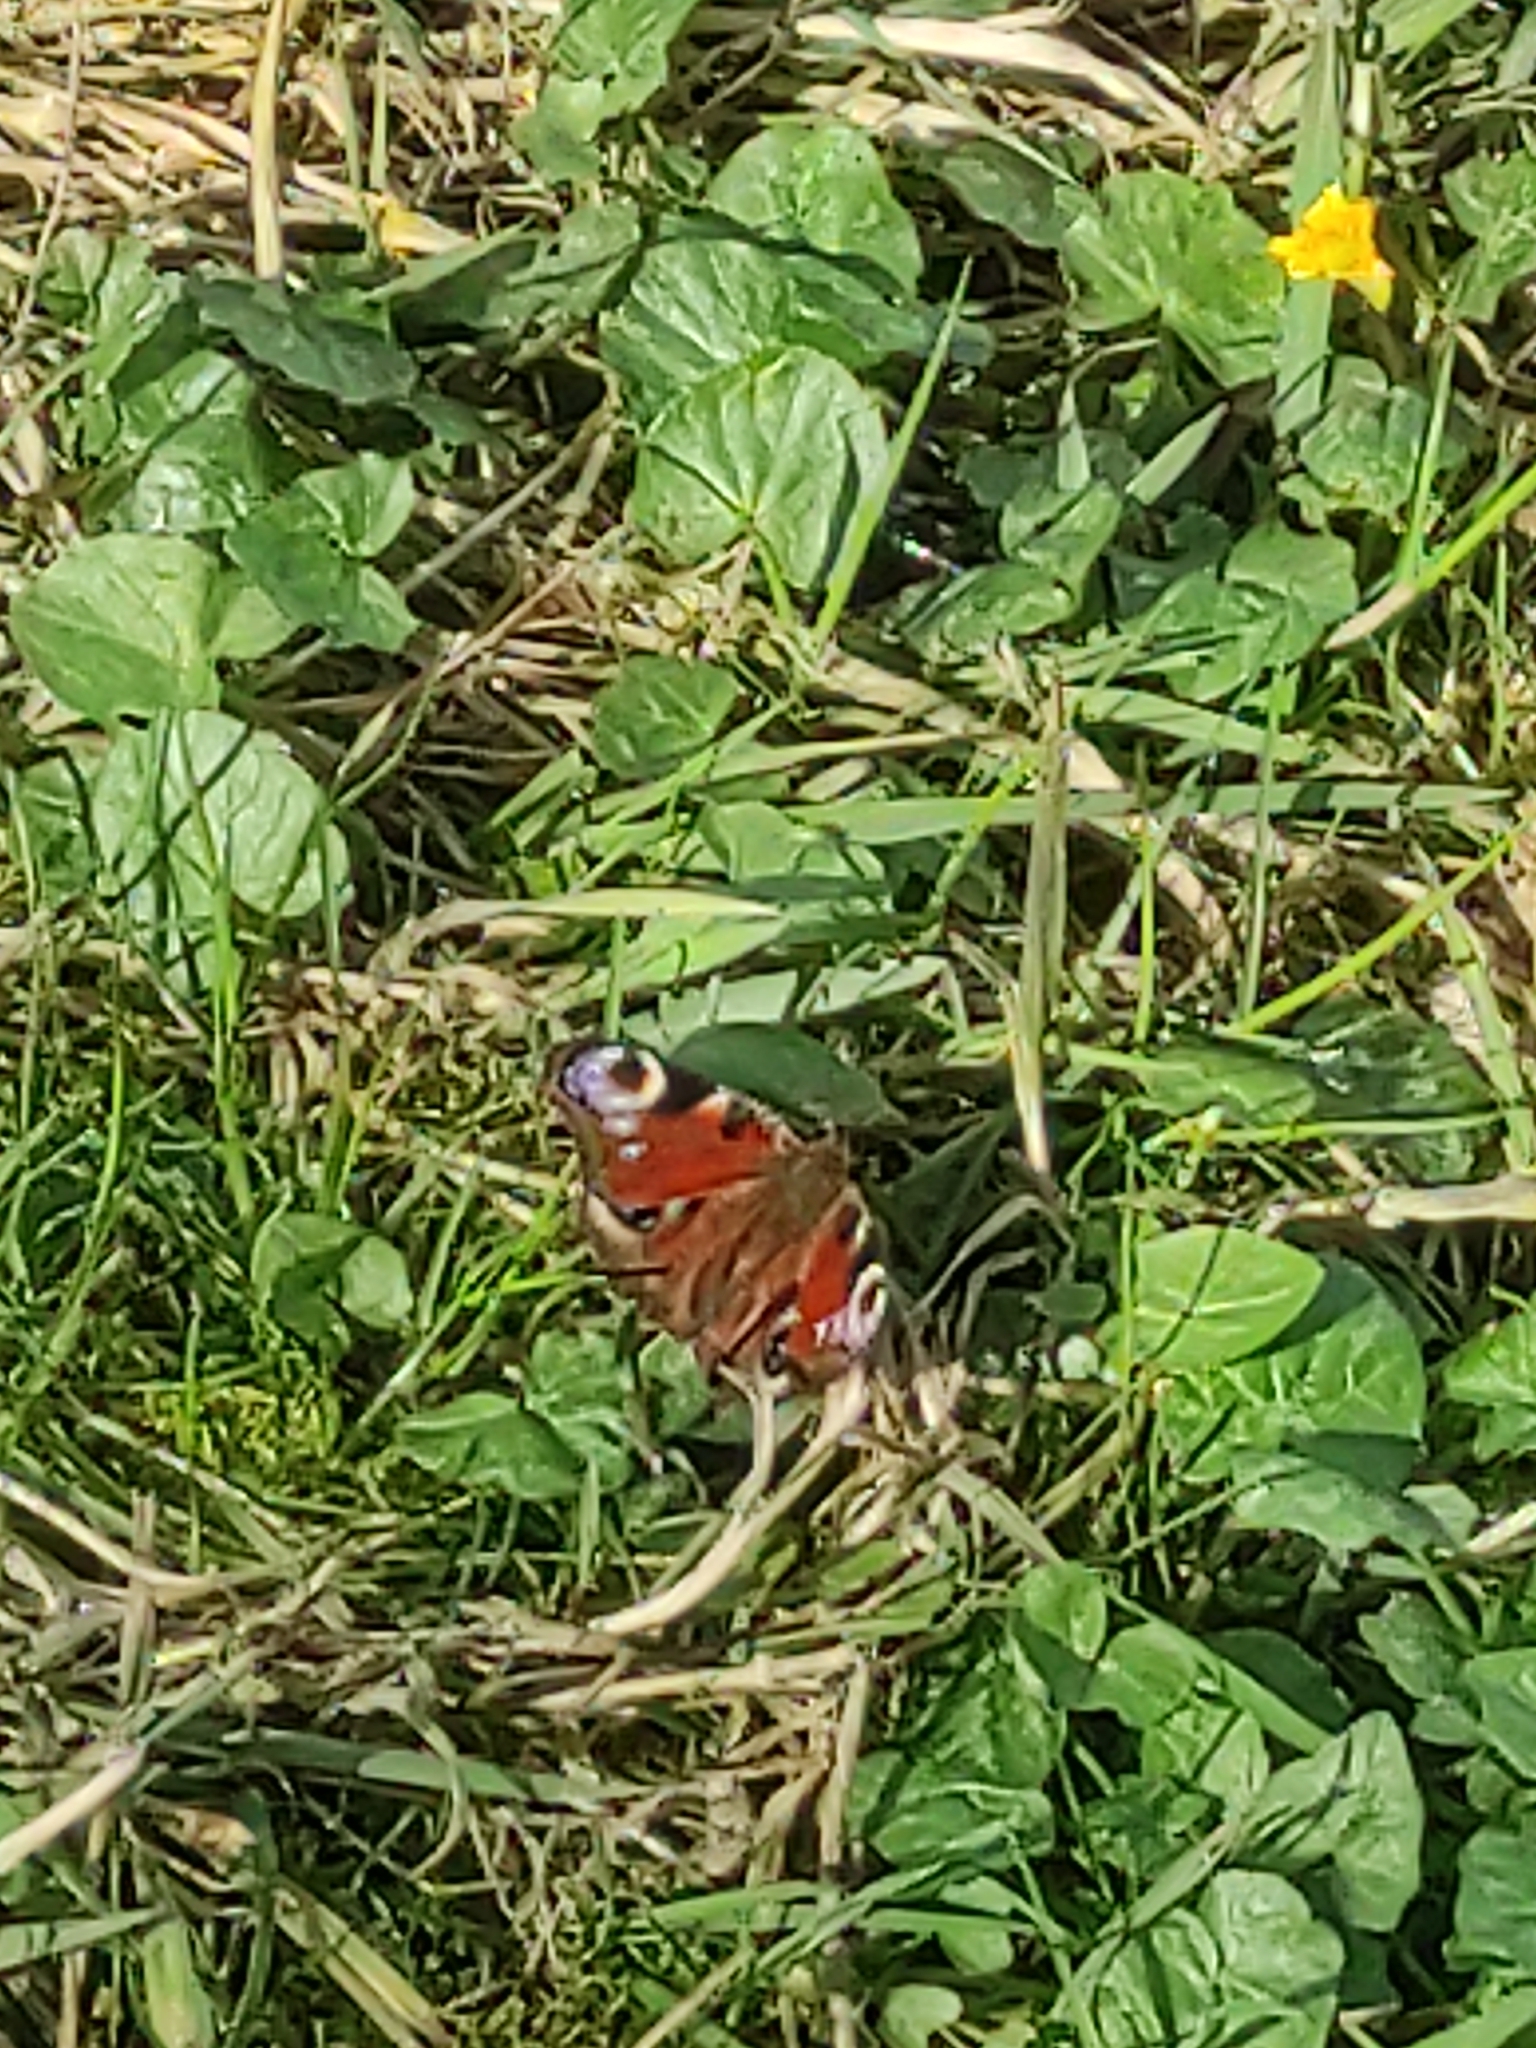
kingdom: Animalia
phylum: Arthropoda
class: Insecta
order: Lepidoptera
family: Nymphalidae
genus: Aglais
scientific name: Aglais io
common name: Peacock
